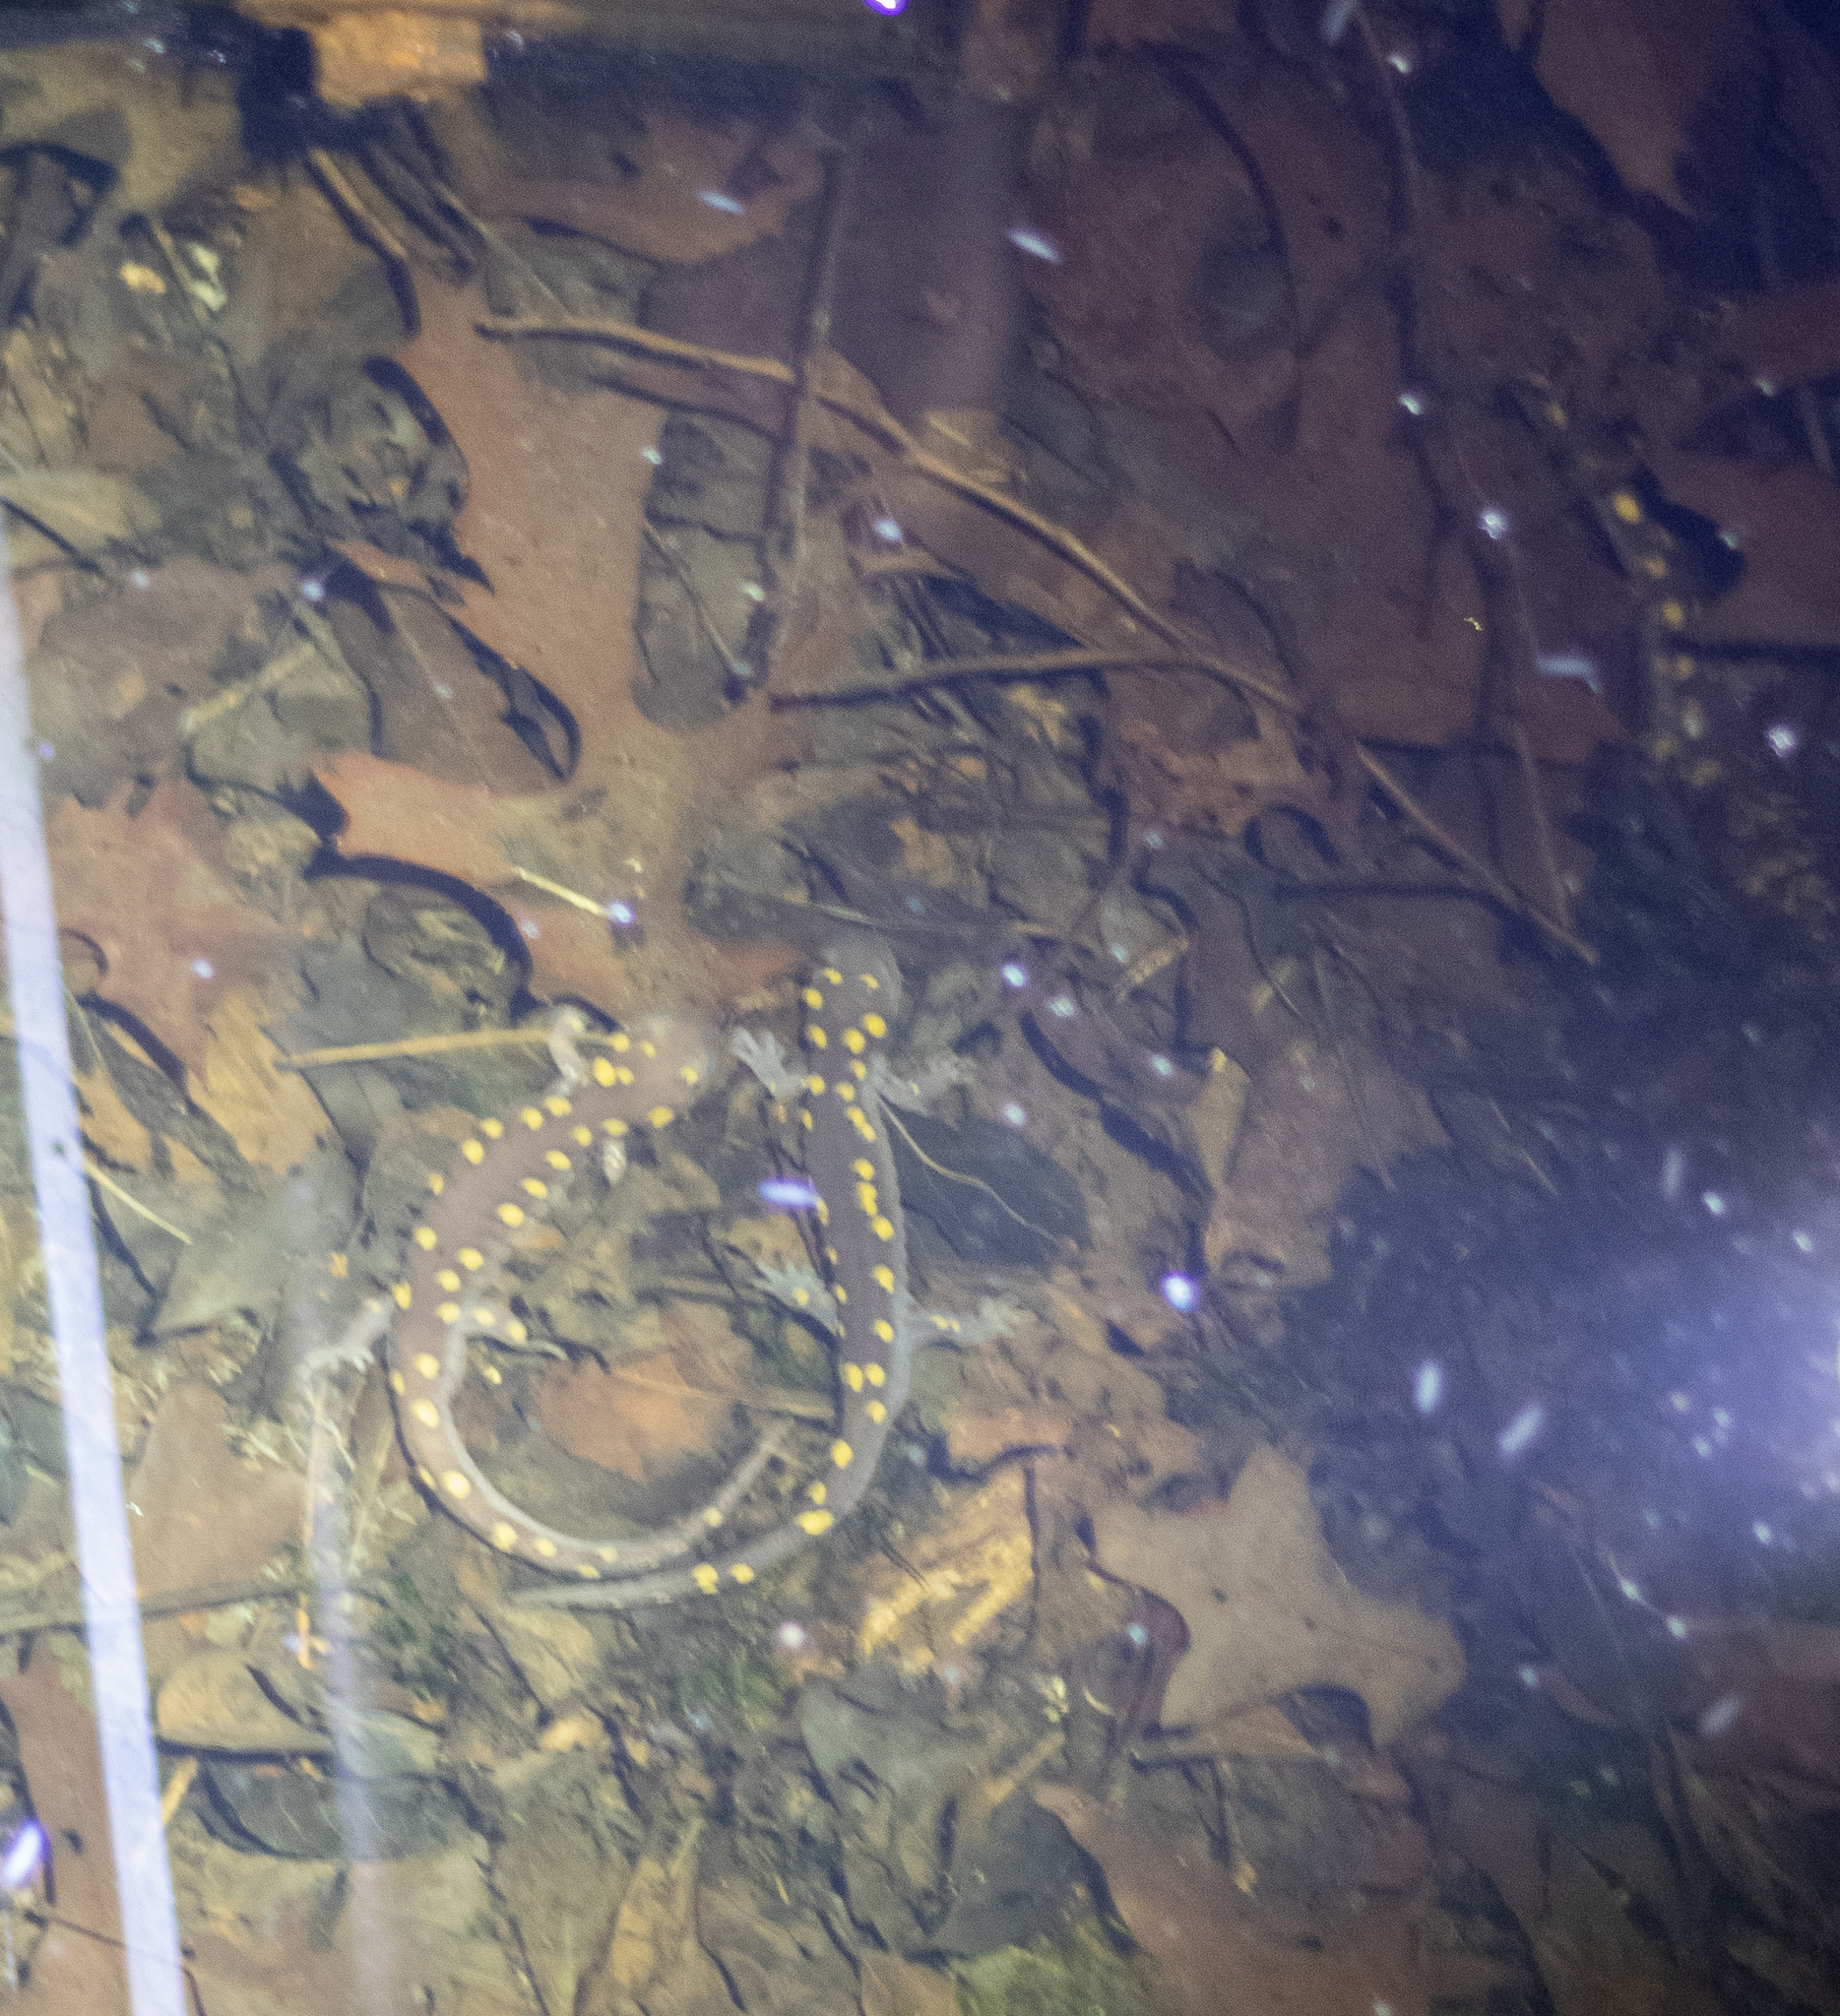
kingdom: Animalia
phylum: Chordata
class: Amphibia
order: Caudata
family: Ambystomatidae
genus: Ambystoma
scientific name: Ambystoma maculatum
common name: Spotted salamander
